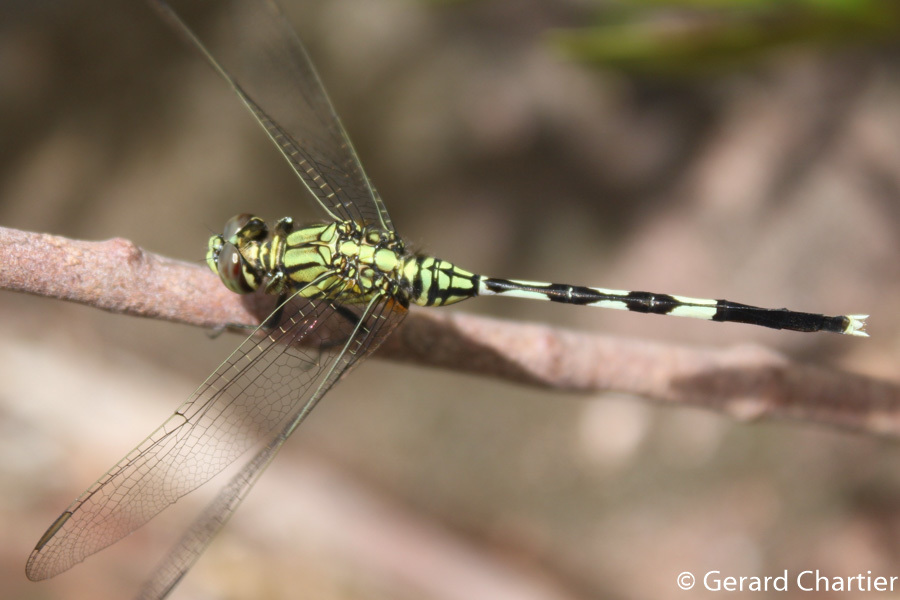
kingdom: Animalia
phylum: Arthropoda
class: Insecta
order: Odonata
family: Libellulidae
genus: Orthetrum
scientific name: Orthetrum sabina
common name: Slender skimmer
